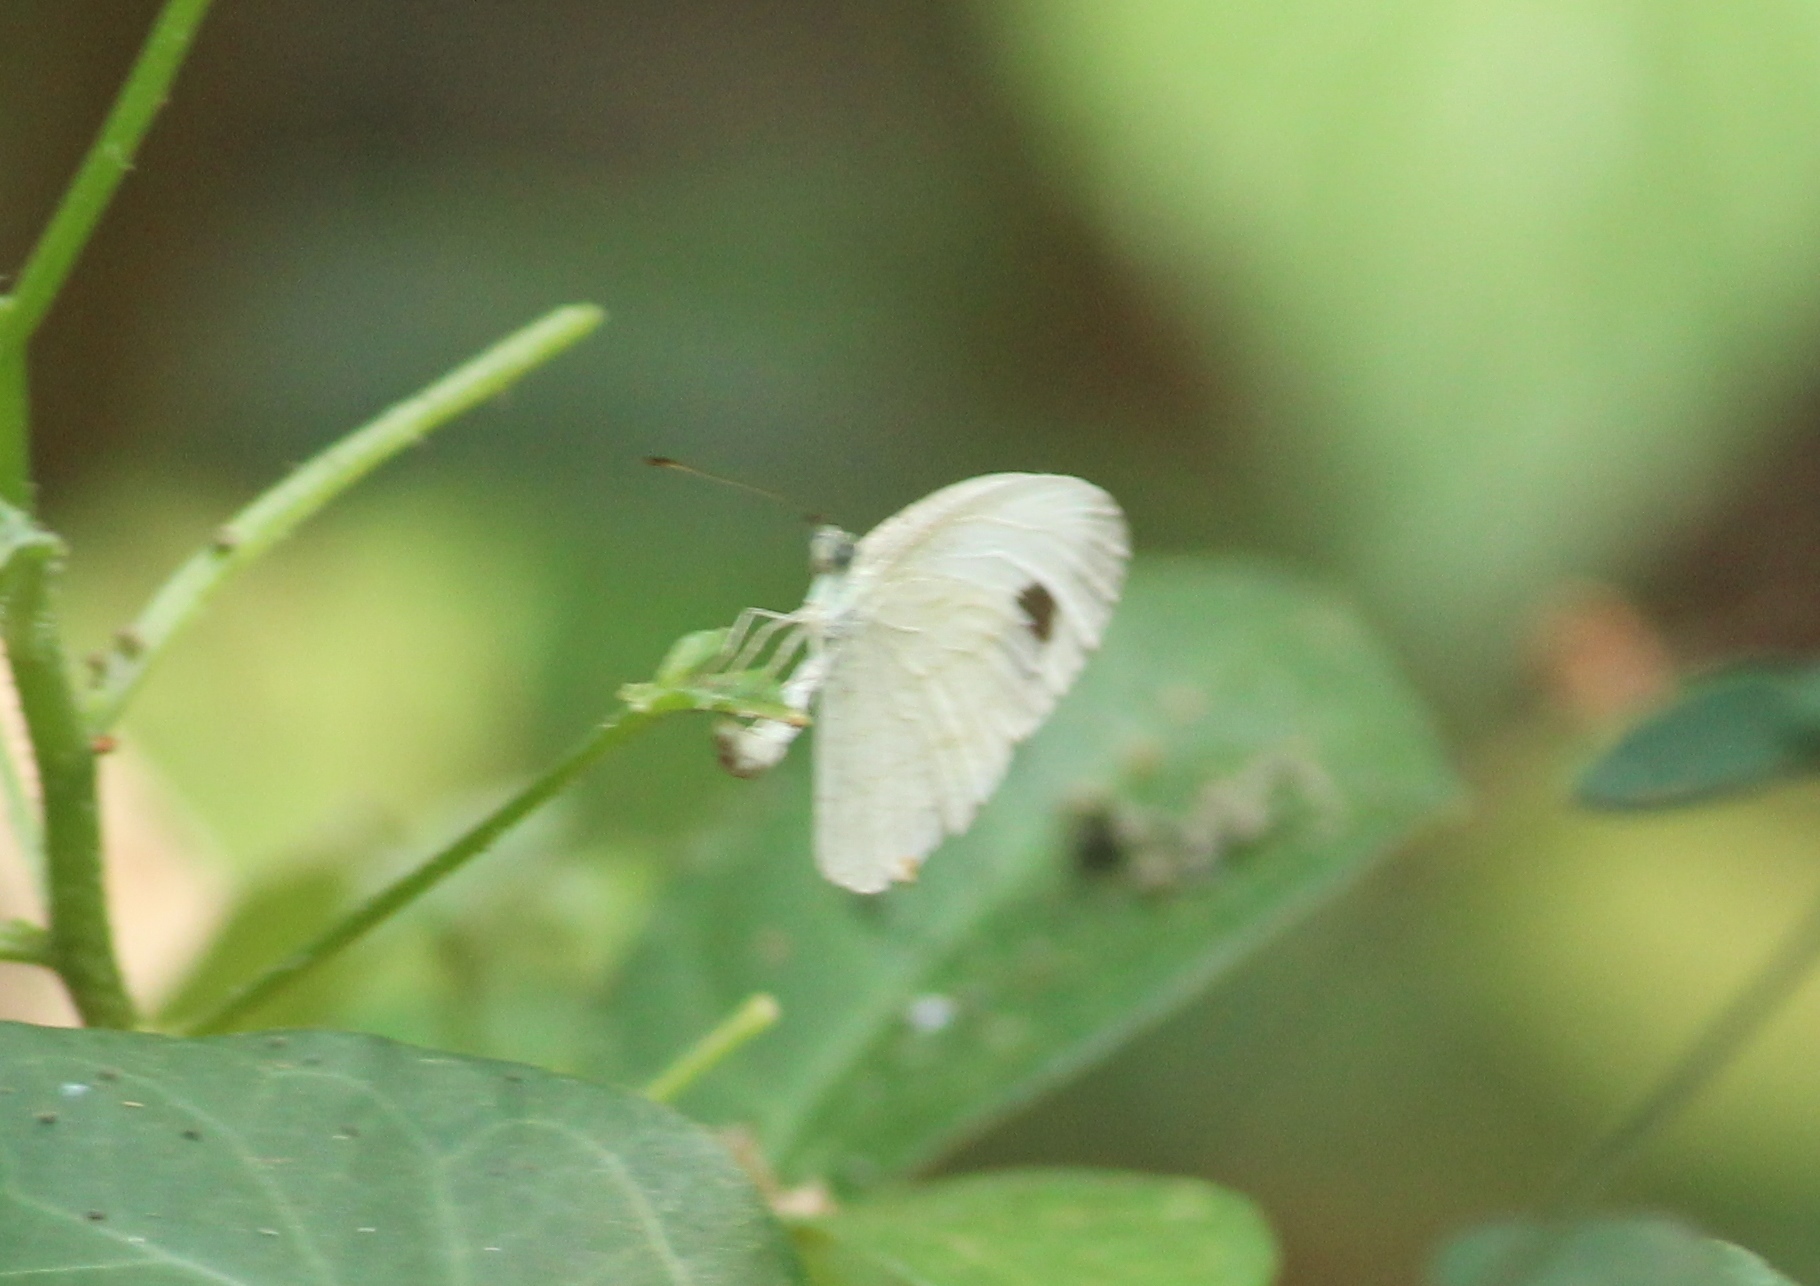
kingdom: Animalia
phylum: Arthropoda
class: Insecta
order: Lepidoptera
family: Pieridae
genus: Leptosia
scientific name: Leptosia nina
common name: Psyche
